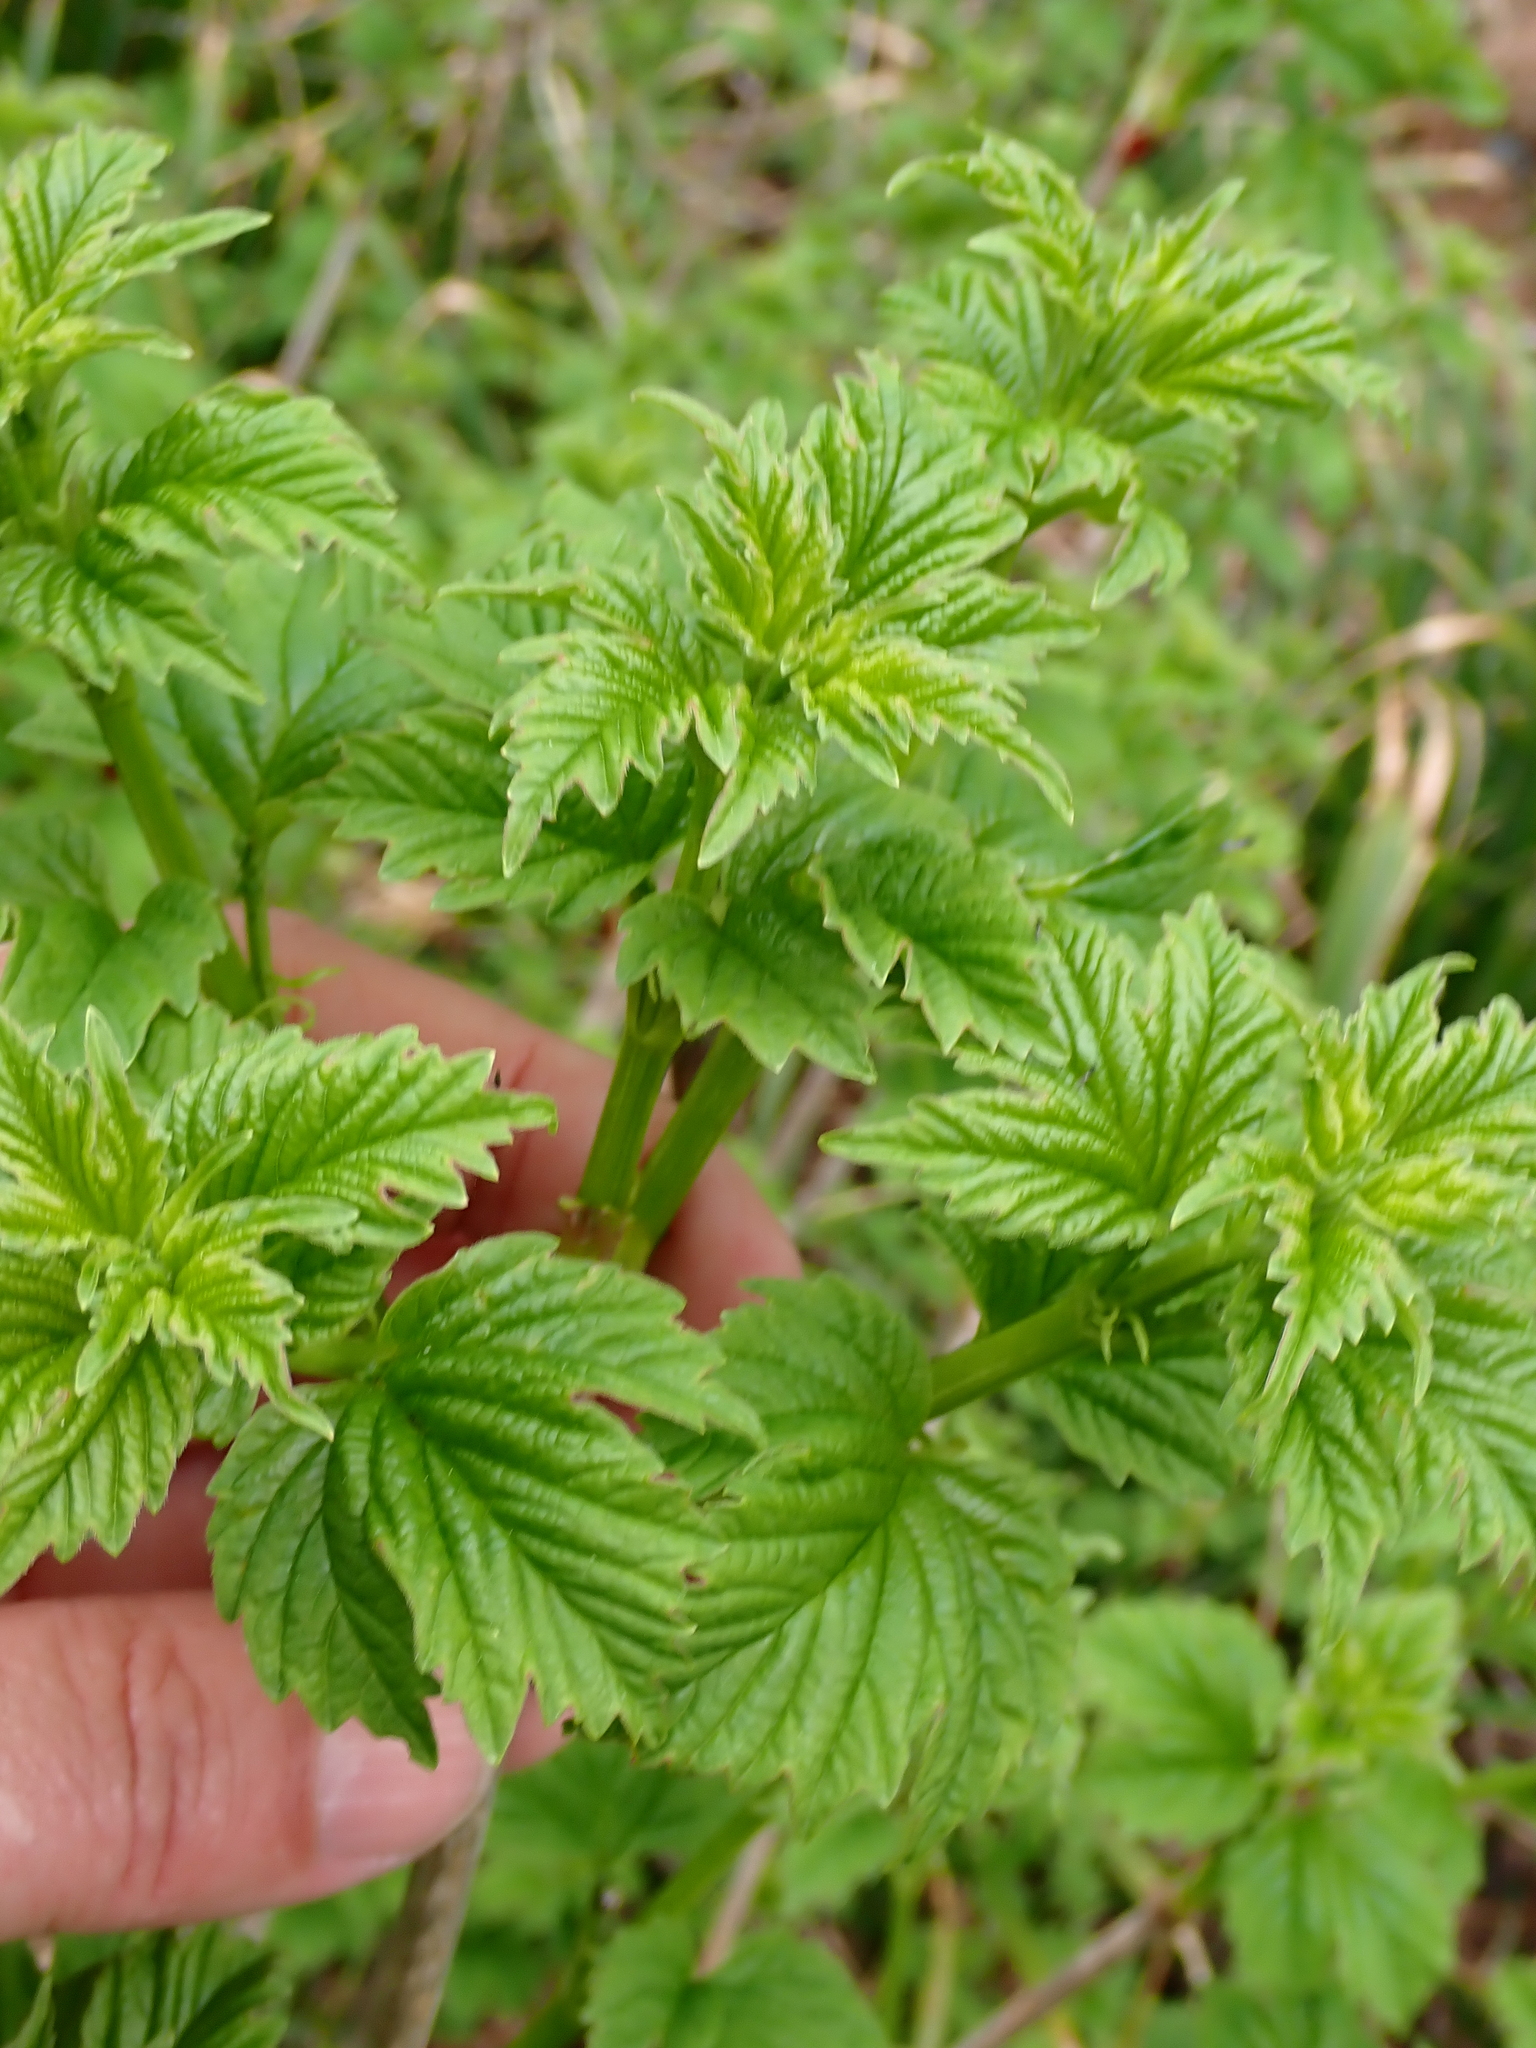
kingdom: Plantae
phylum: Tracheophyta
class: Magnoliopsida
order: Dipsacales
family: Viburnaceae
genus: Viburnum
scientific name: Viburnum opulus
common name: Guelder-rose
